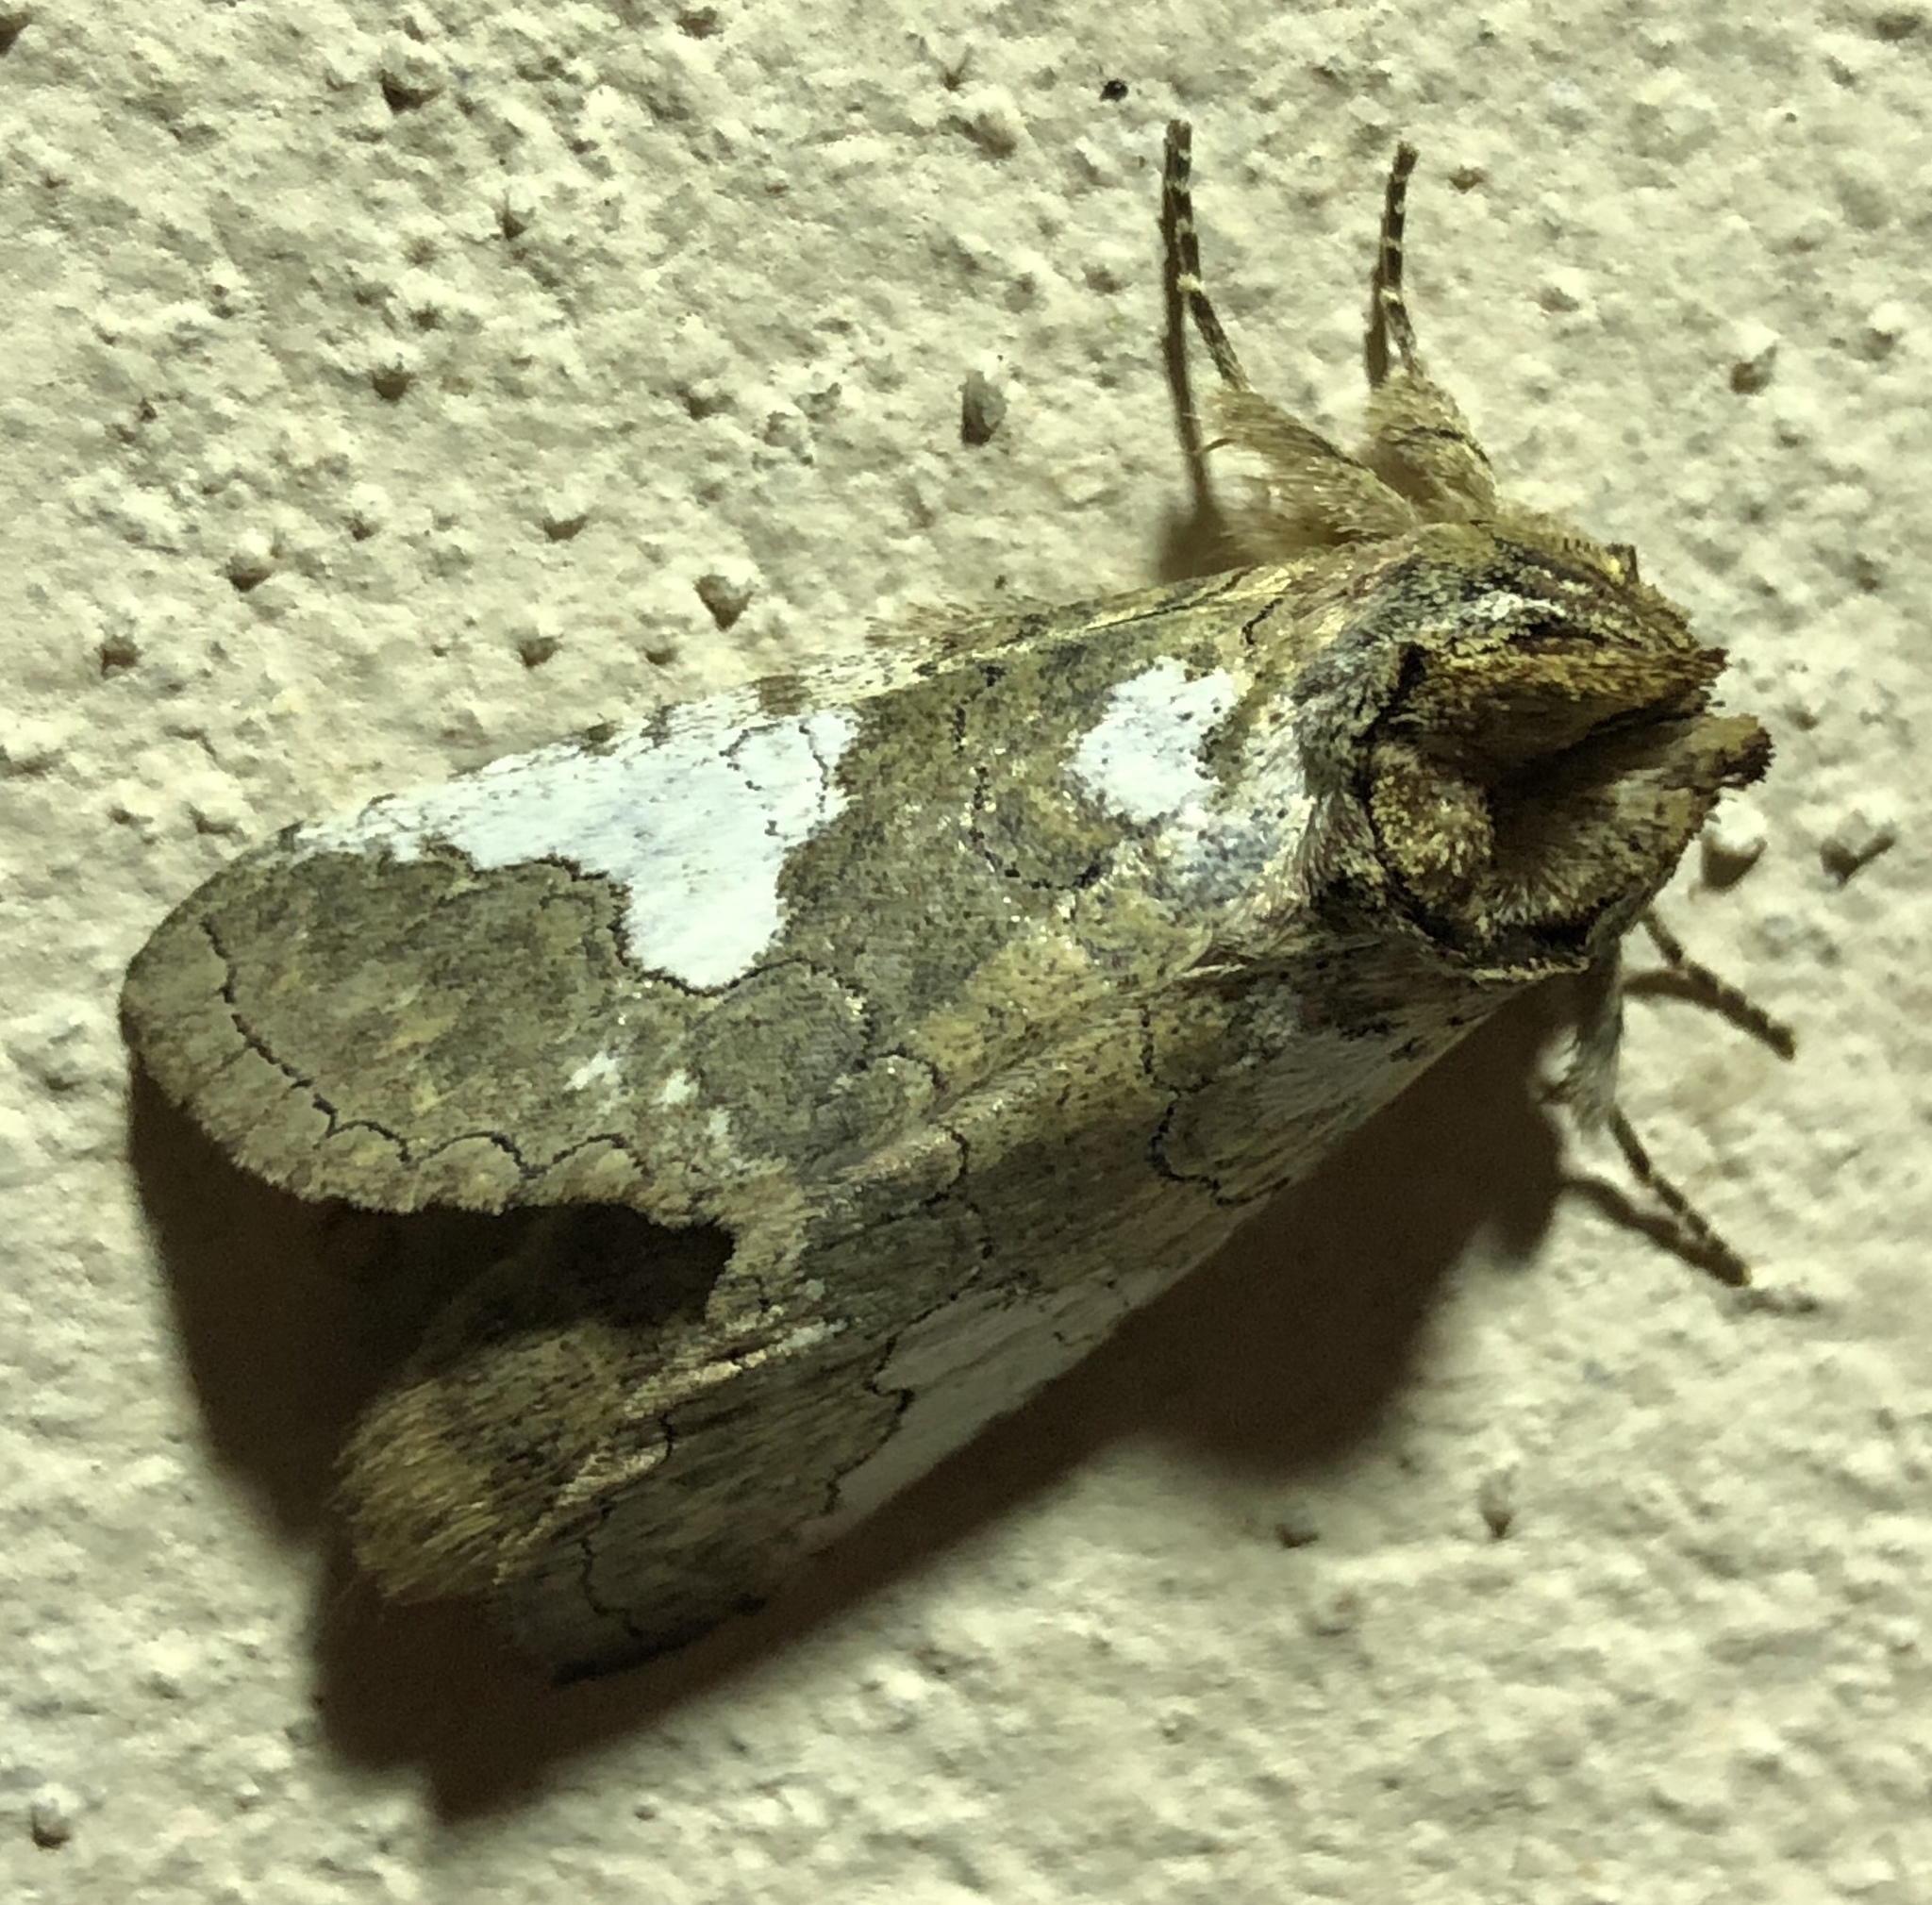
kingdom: Animalia
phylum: Arthropoda
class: Insecta
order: Lepidoptera
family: Notodontidae
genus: Rifargia
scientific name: Rifargia apella
